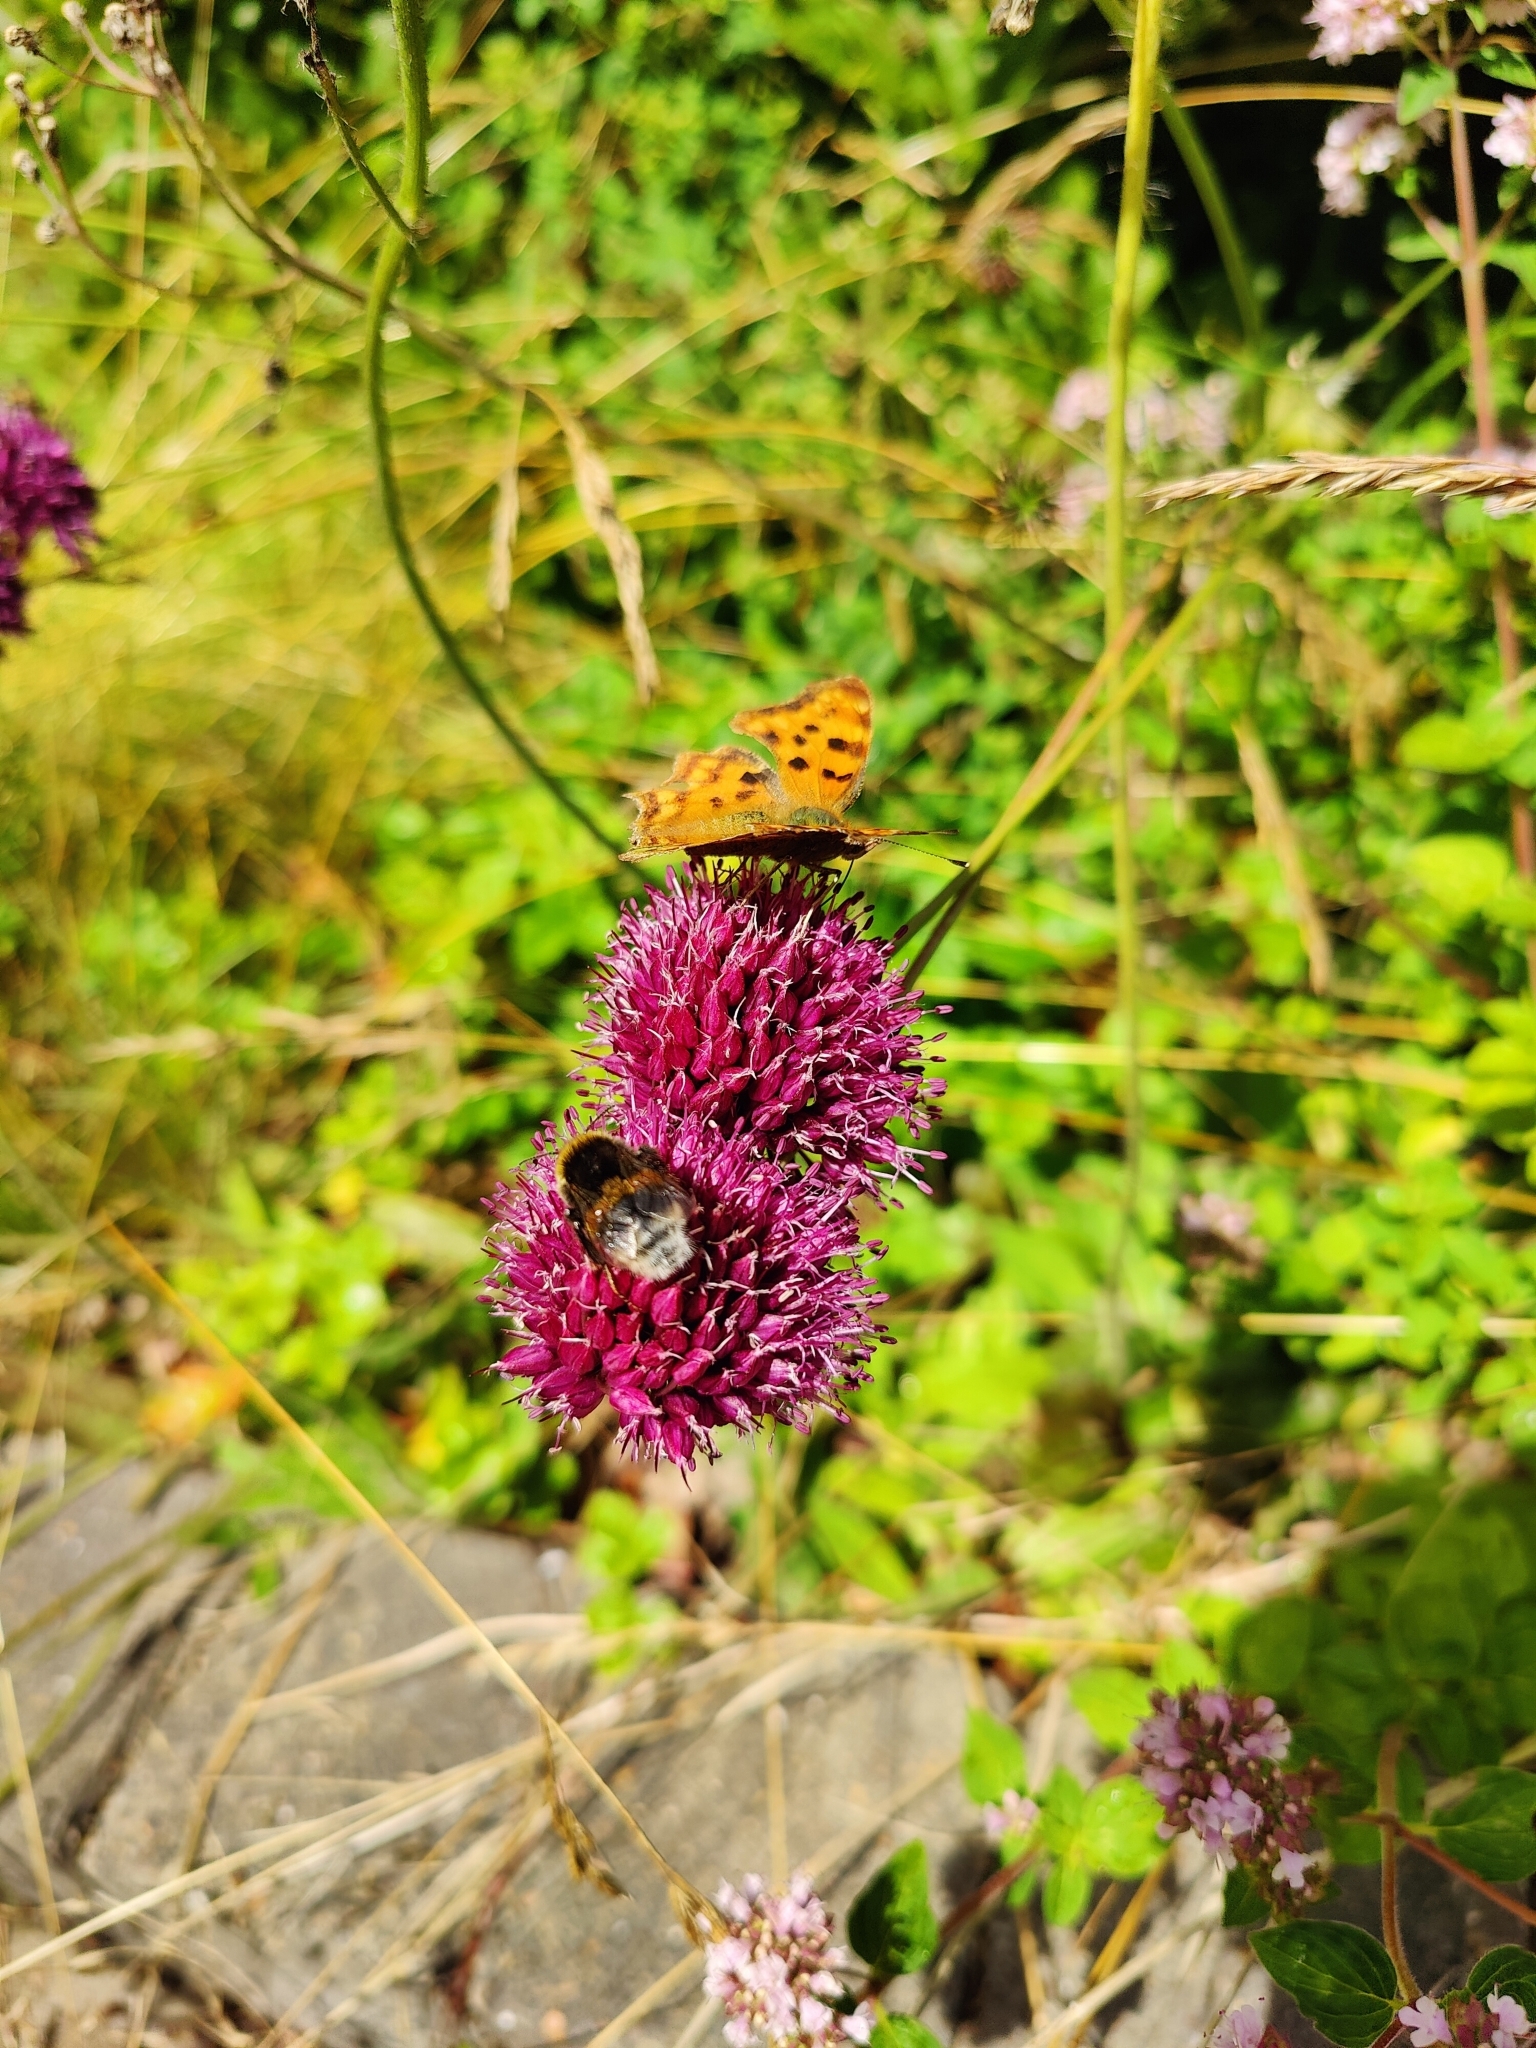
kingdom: Animalia
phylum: Arthropoda
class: Insecta
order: Lepidoptera
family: Nymphalidae
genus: Polygonia
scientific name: Polygonia c-album
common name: Comma
